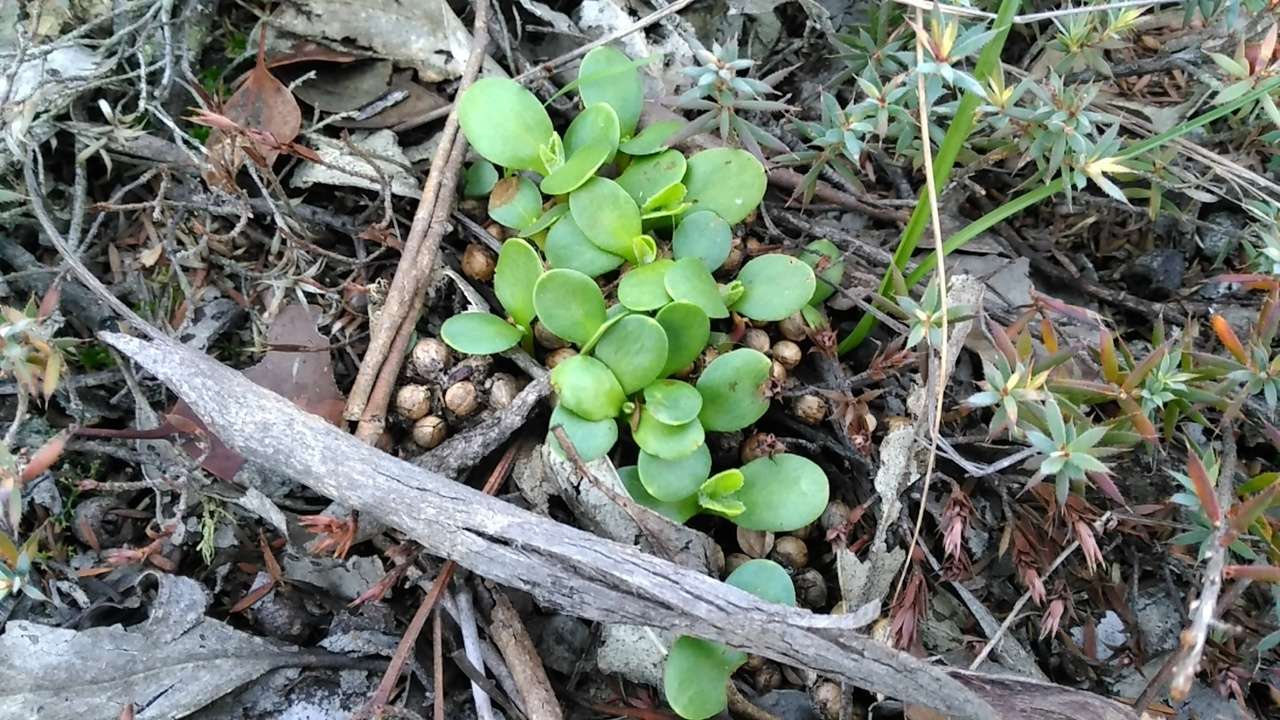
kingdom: Plantae
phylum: Tracheophyta
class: Magnoliopsida
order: Asterales
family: Asteraceae
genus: Osteospermum
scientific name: Osteospermum moniliferum
